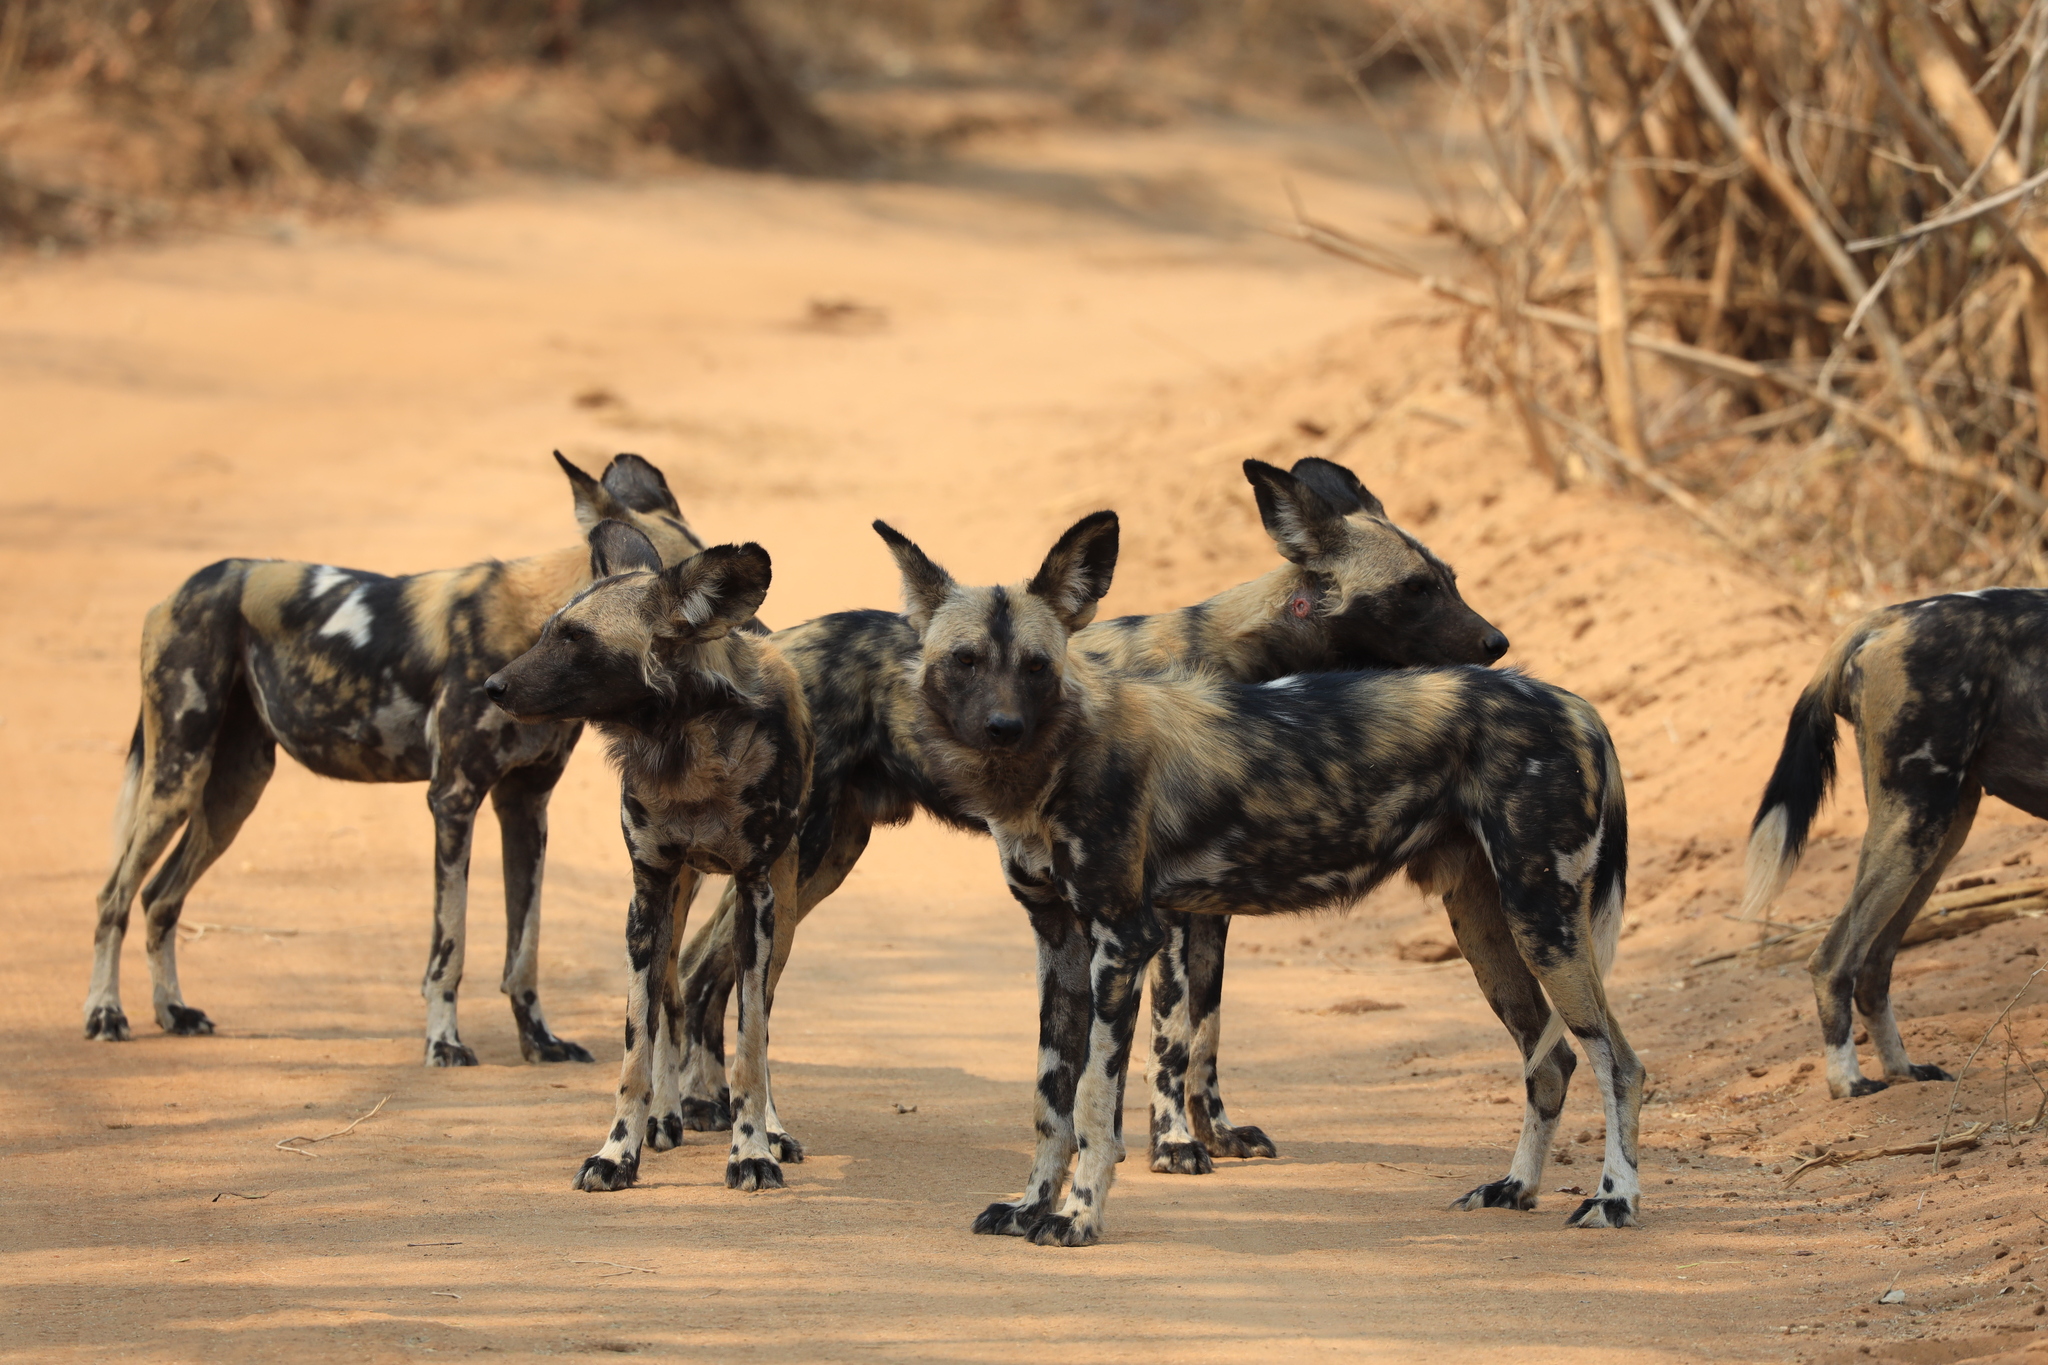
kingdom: Animalia
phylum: Chordata
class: Mammalia
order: Carnivora
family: Canidae
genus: Lycaon
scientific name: Lycaon pictus
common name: African wild dog
